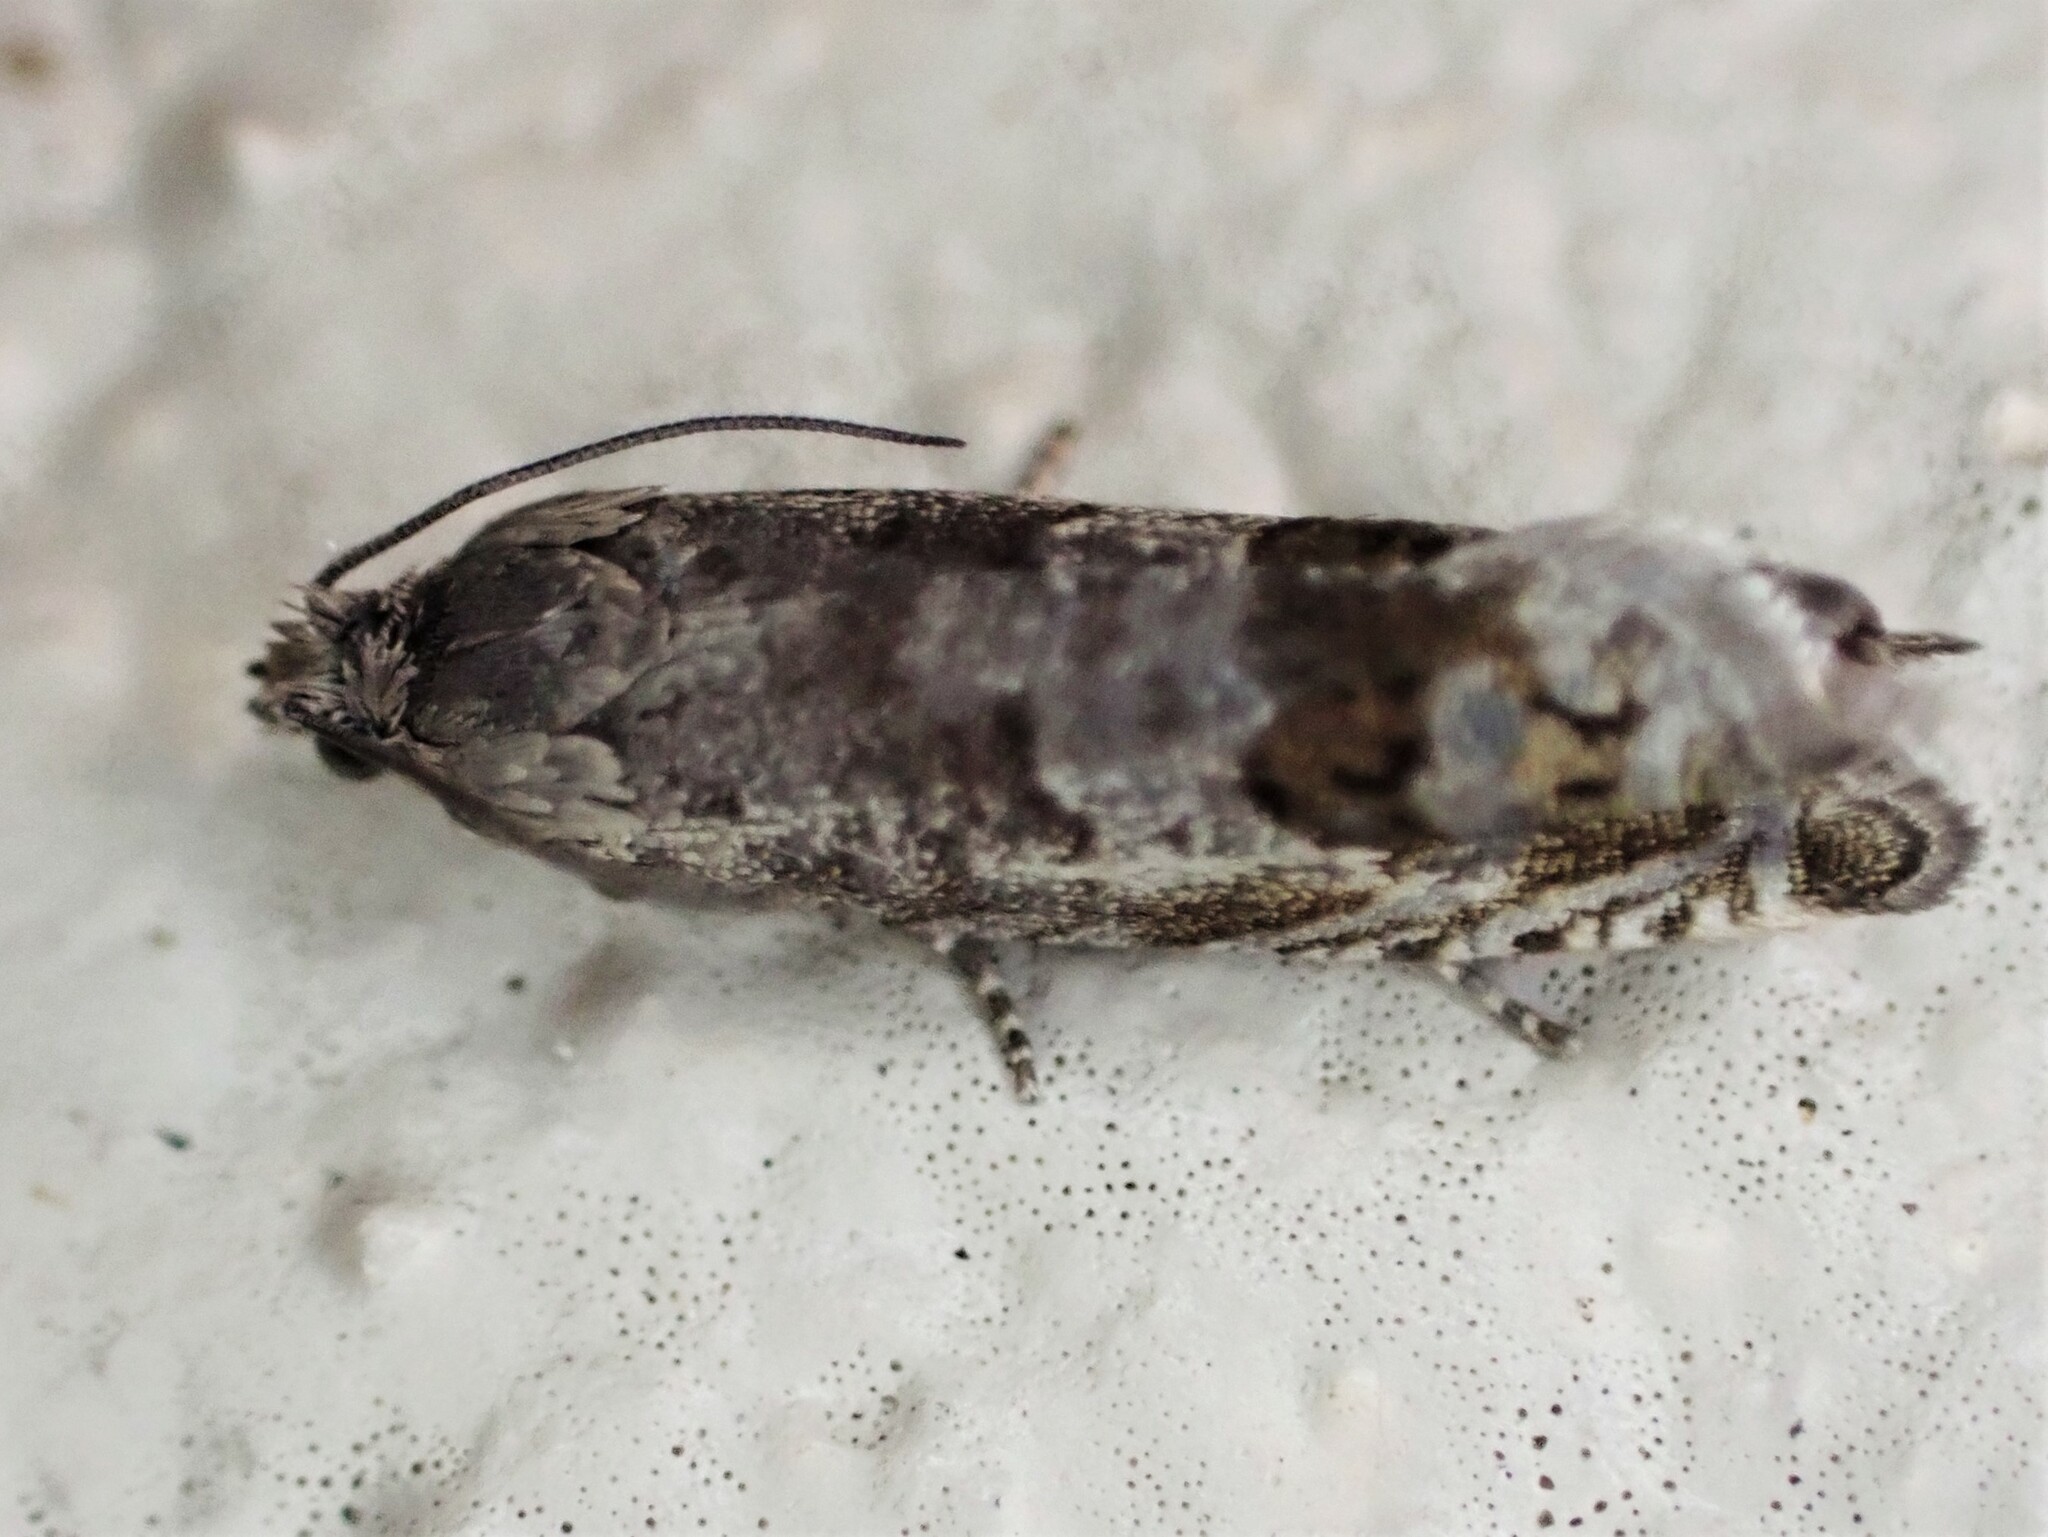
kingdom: Animalia
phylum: Arthropoda
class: Insecta
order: Lepidoptera
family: Tortricidae
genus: Cydia
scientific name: Cydia succedana
